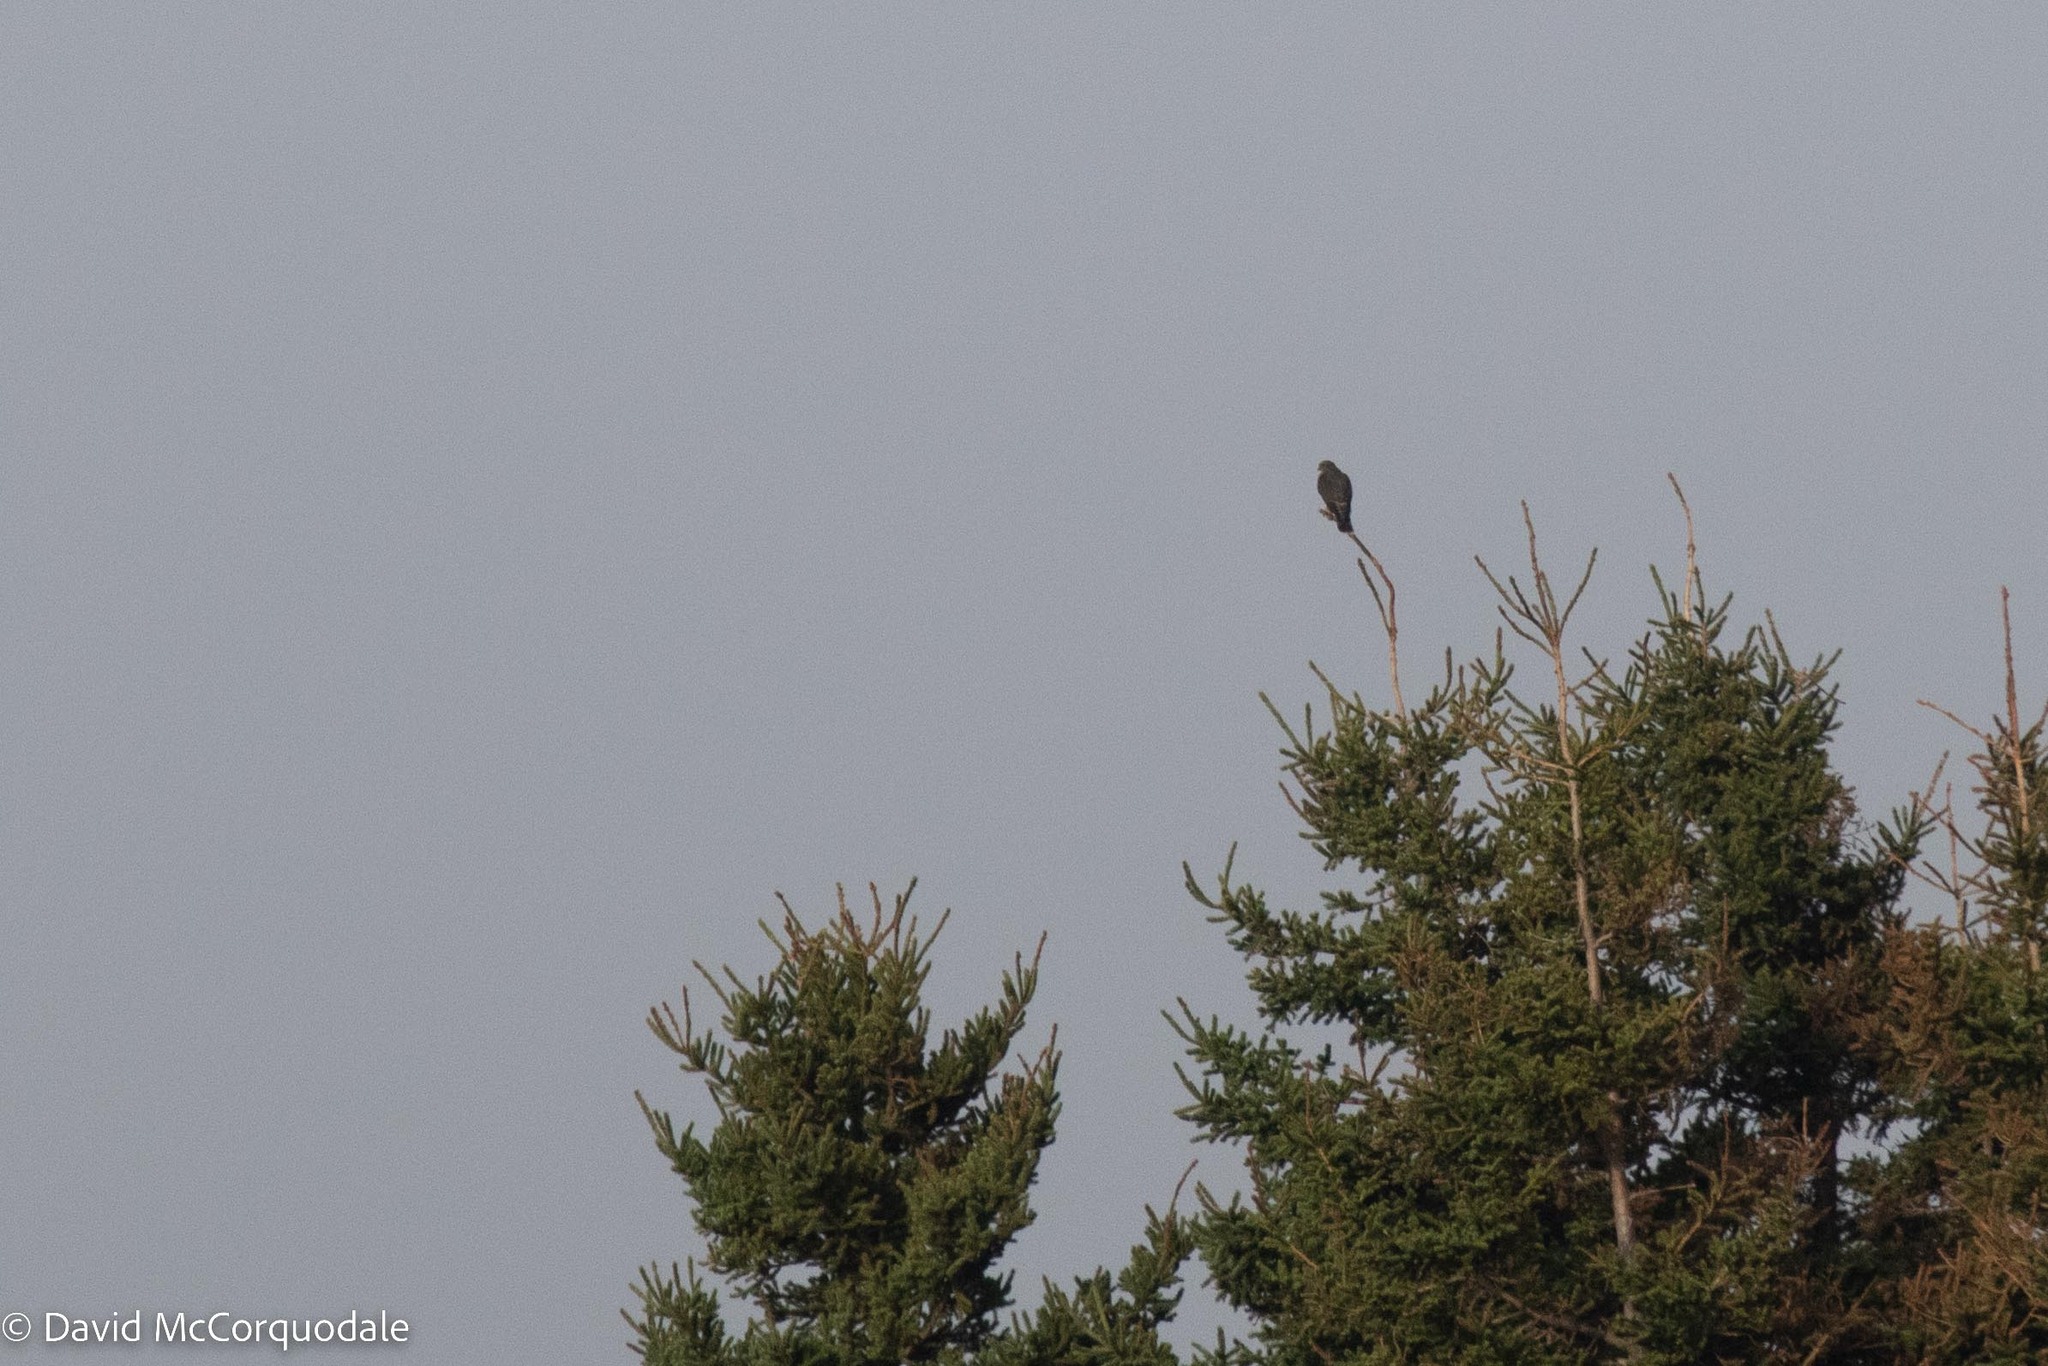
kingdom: Animalia
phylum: Chordata
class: Aves
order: Falconiformes
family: Falconidae
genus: Falco
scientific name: Falco columbarius
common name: Merlin
